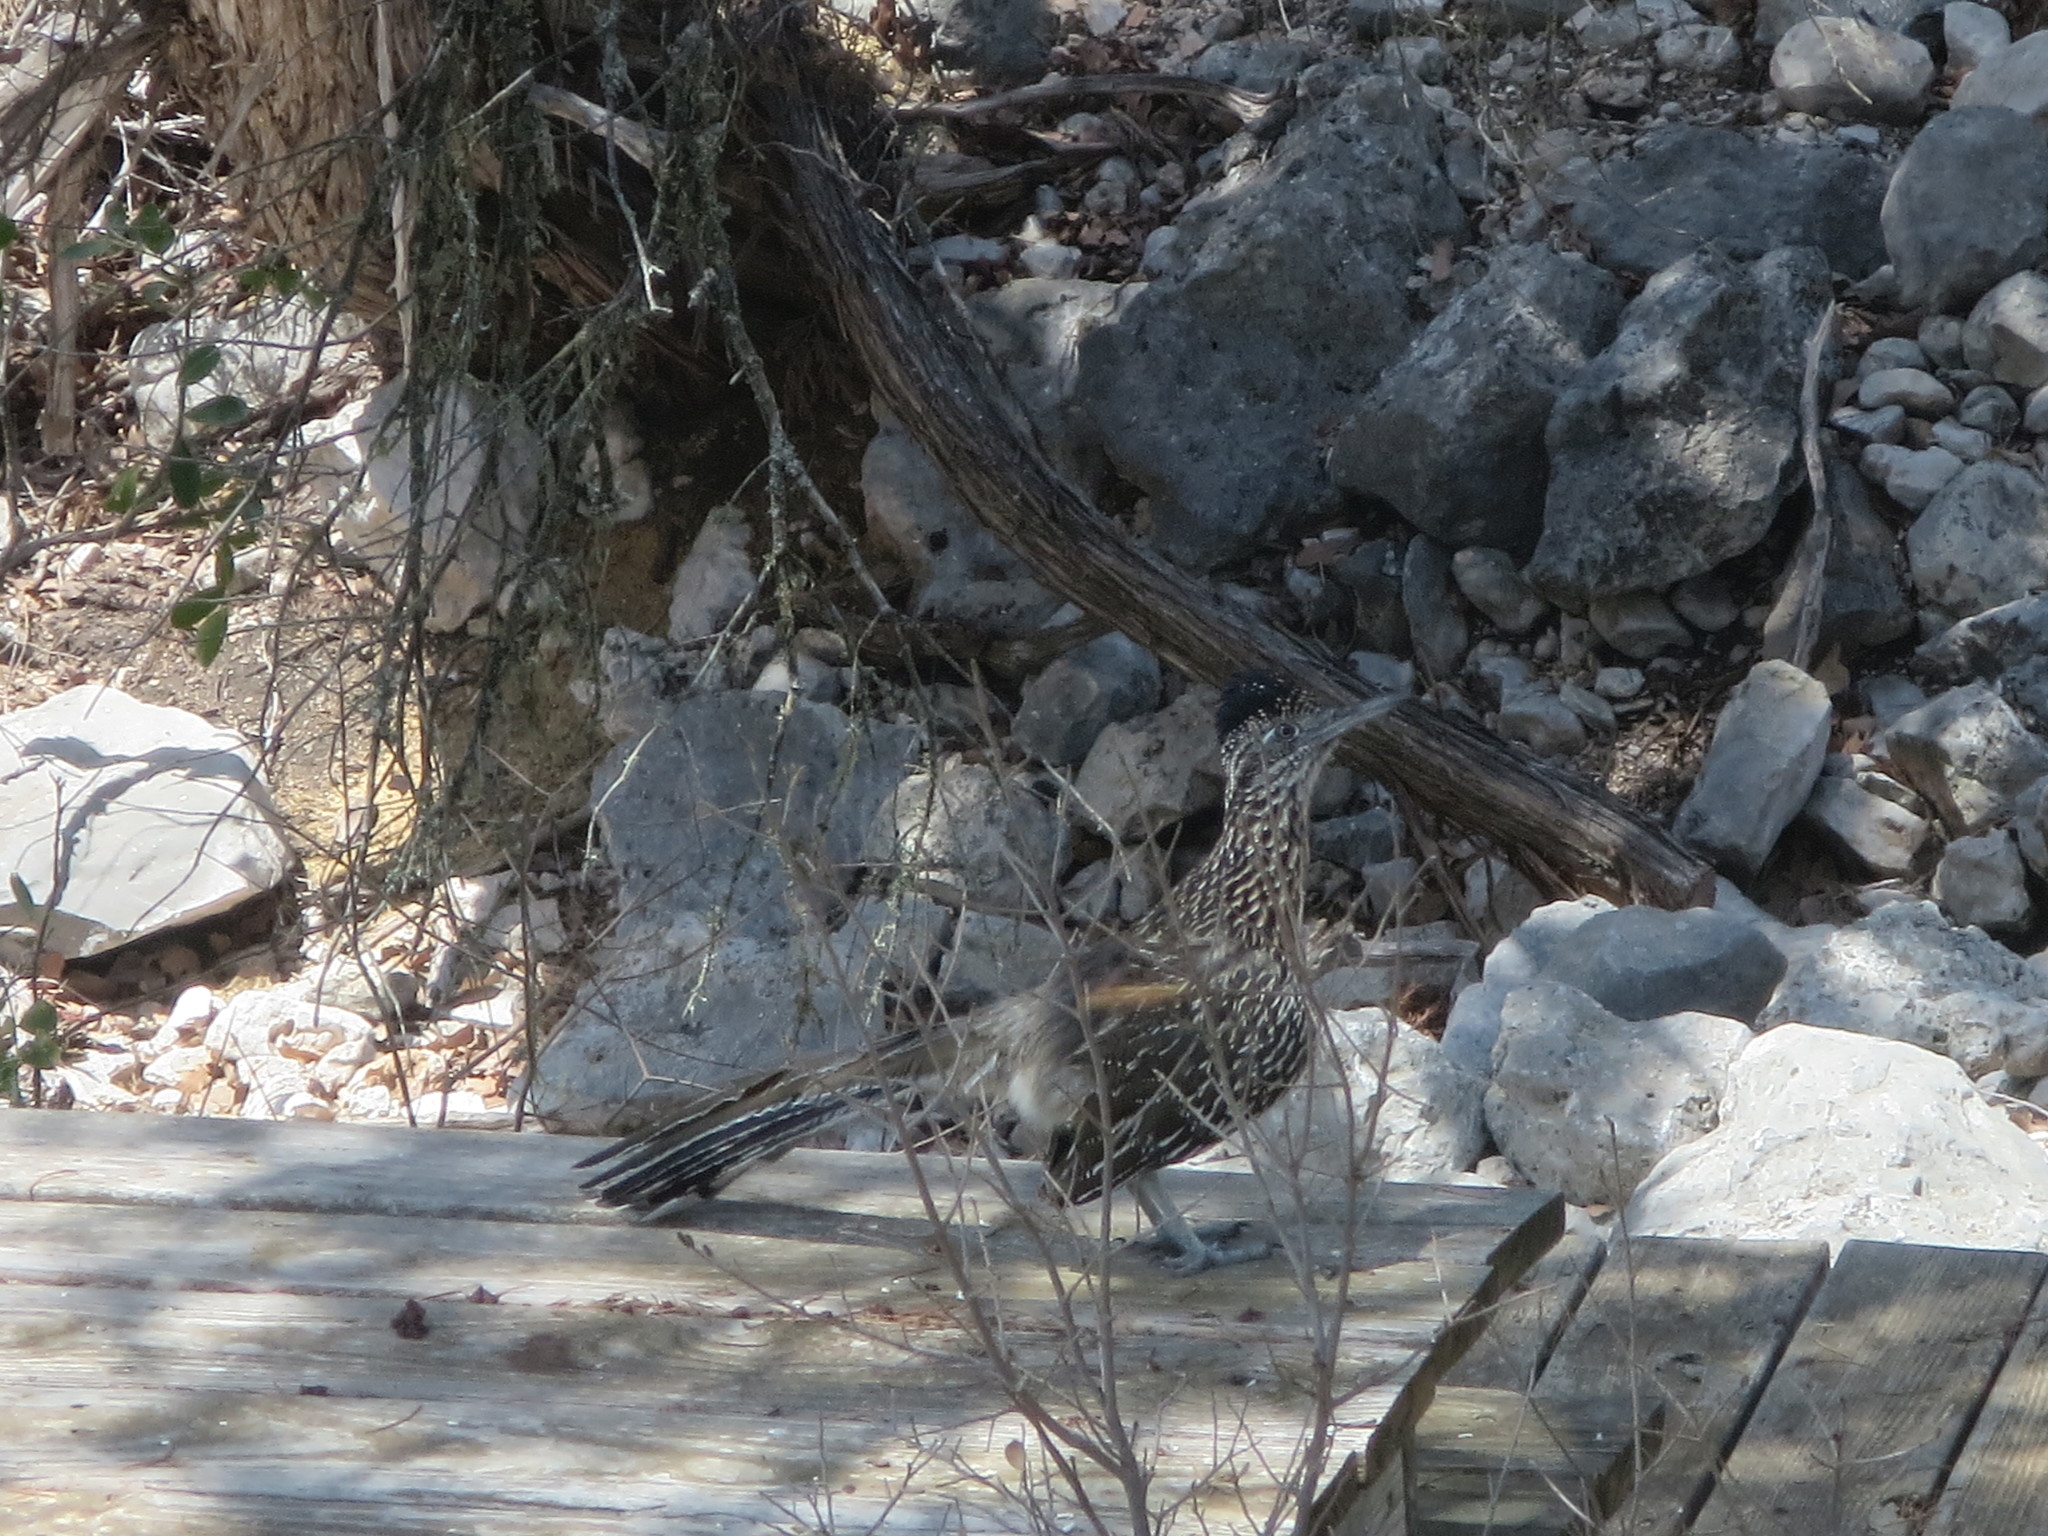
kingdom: Animalia
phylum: Chordata
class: Aves
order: Cuculiformes
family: Cuculidae
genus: Geococcyx
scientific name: Geococcyx californianus
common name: Greater roadrunner
